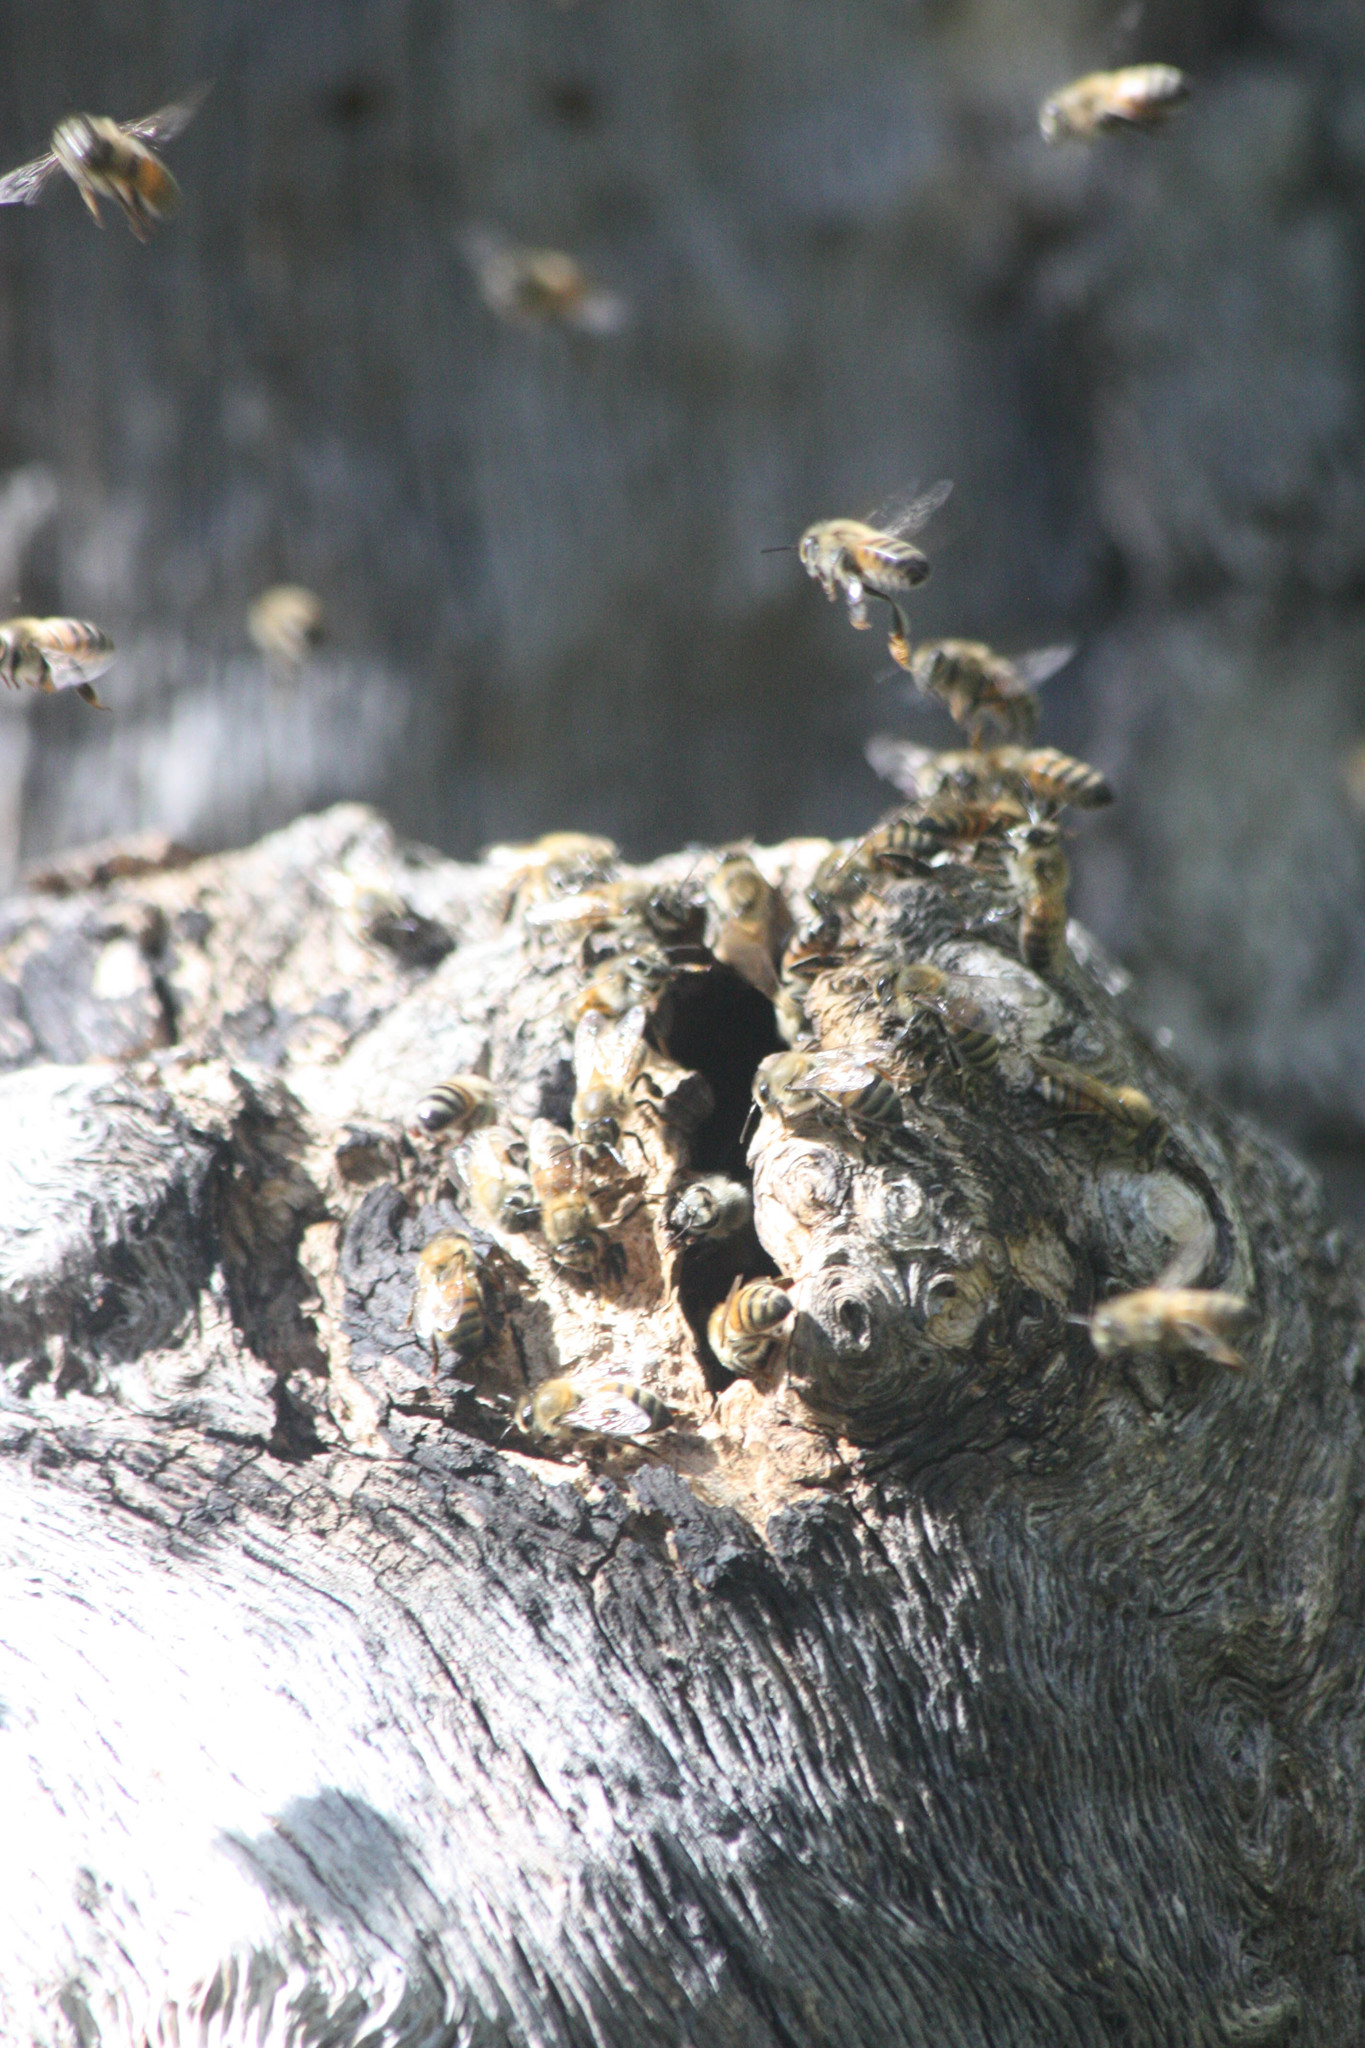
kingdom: Animalia
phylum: Arthropoda
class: Insecta
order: Hymenoptera
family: Apidae
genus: Apis
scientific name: Apis mellifera
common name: Honey bee
